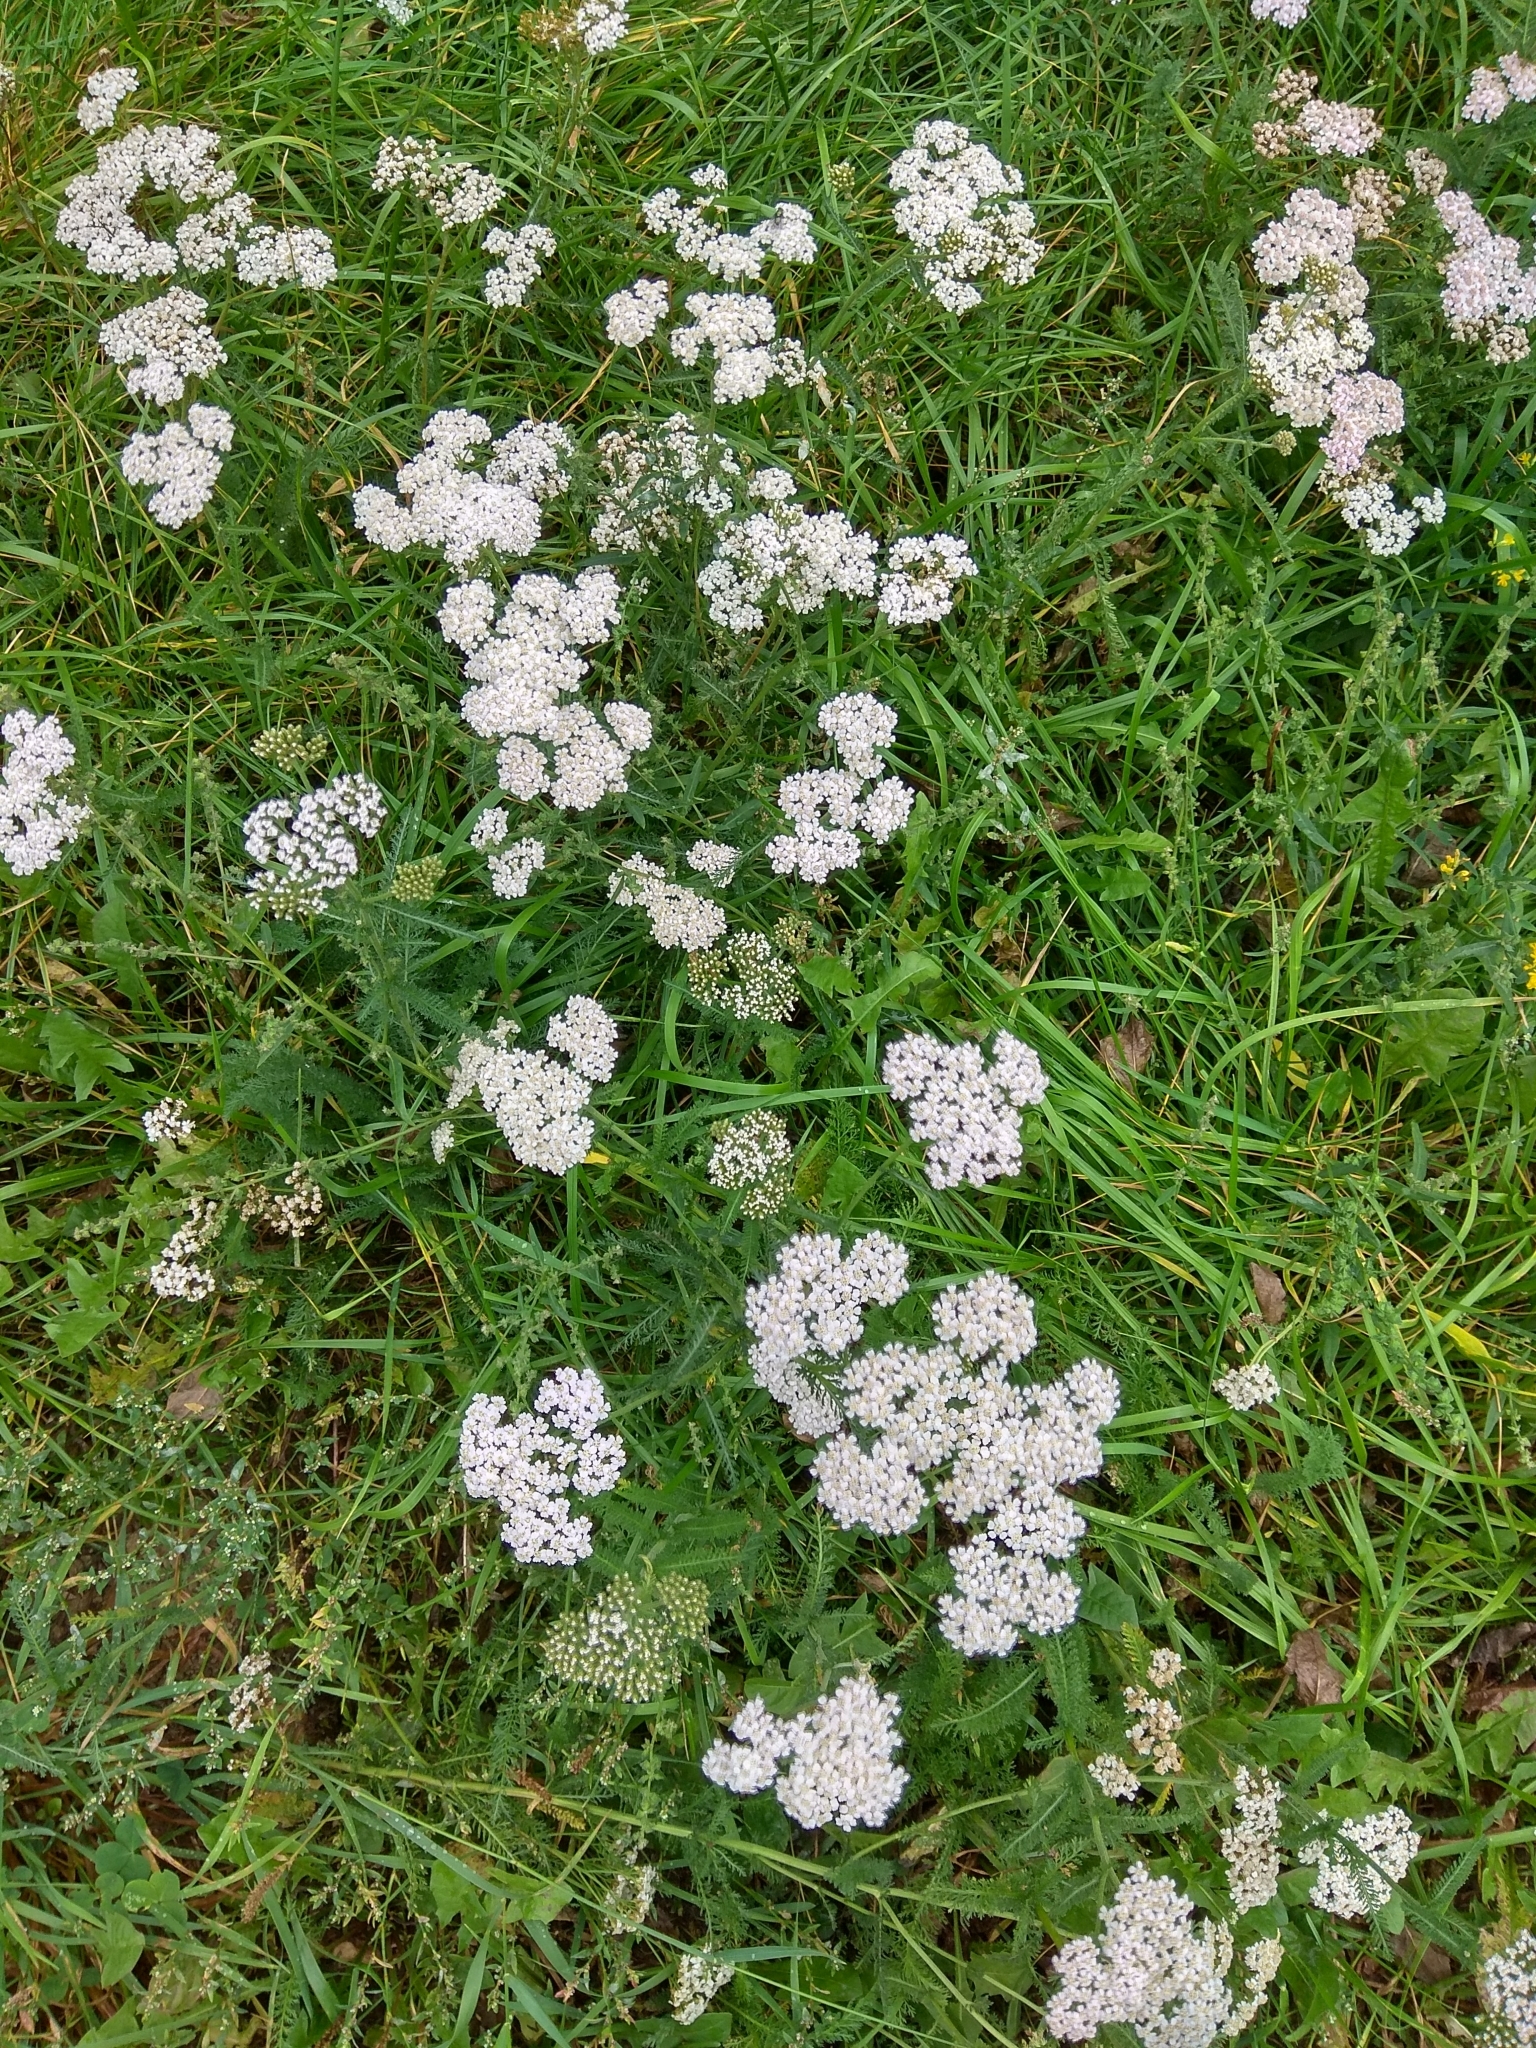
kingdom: Plantae
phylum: Tracheophyta
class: Magnoliopsida
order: Asterales
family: Asteraceae
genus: Achillea
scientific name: Achillea millefolium
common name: Yarrow
